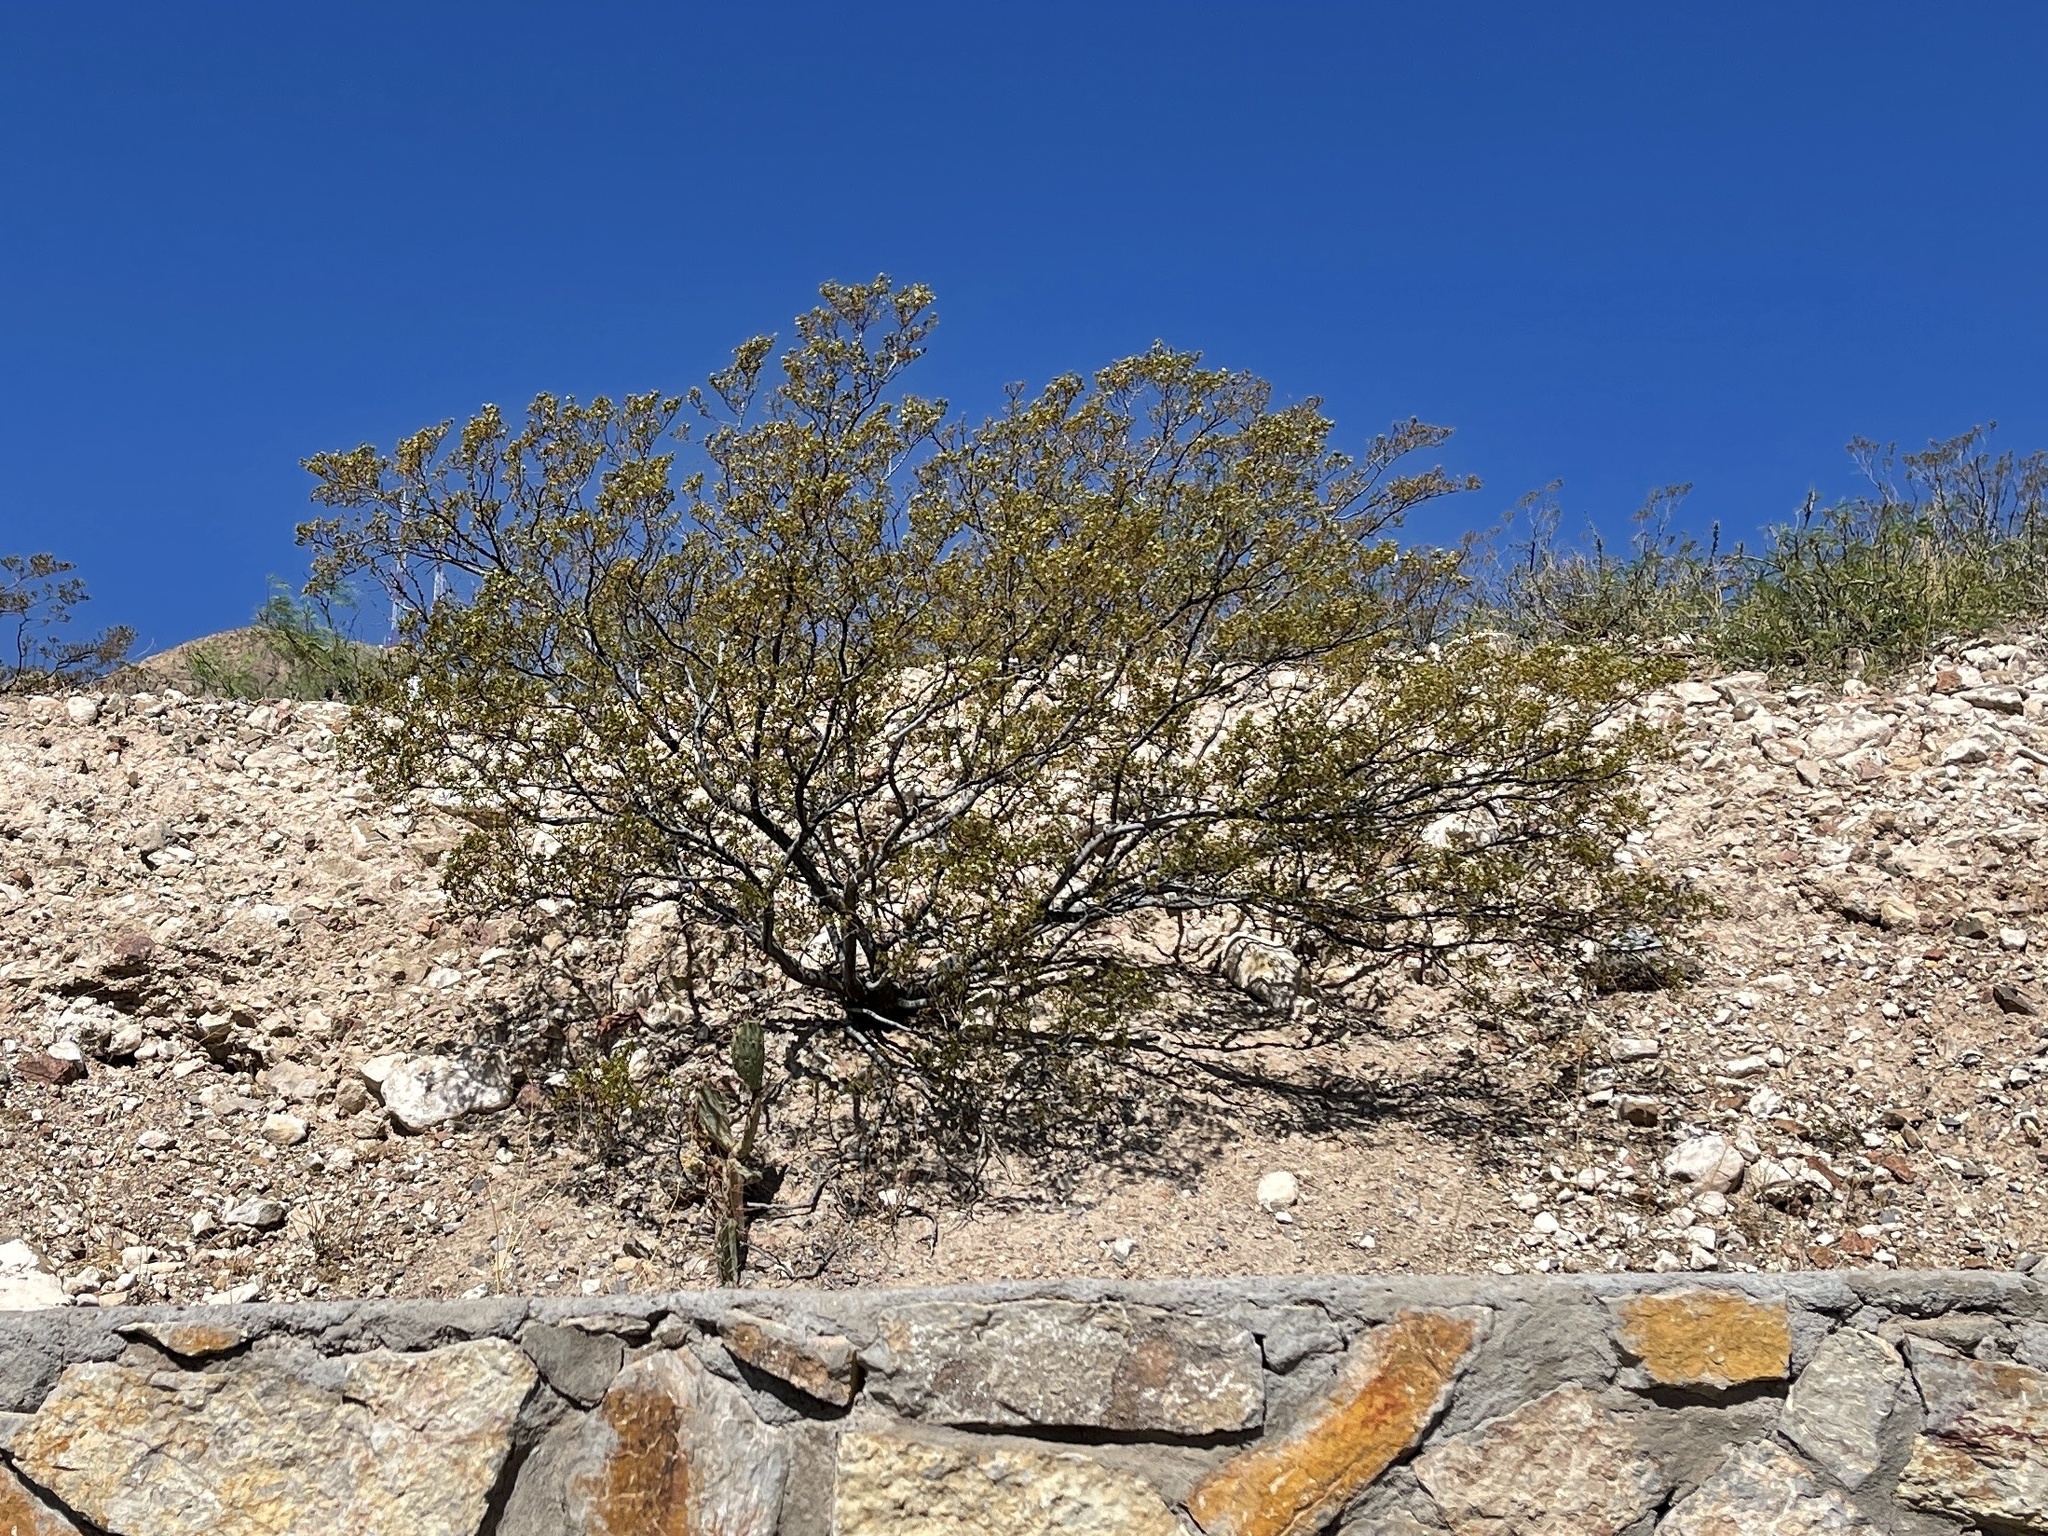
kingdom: Plantae
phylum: Tracheophyta
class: Magnoliopsida
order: Zygophyllales
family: Zygophyllaceae
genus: Larrea
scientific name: Larrea tridentata
